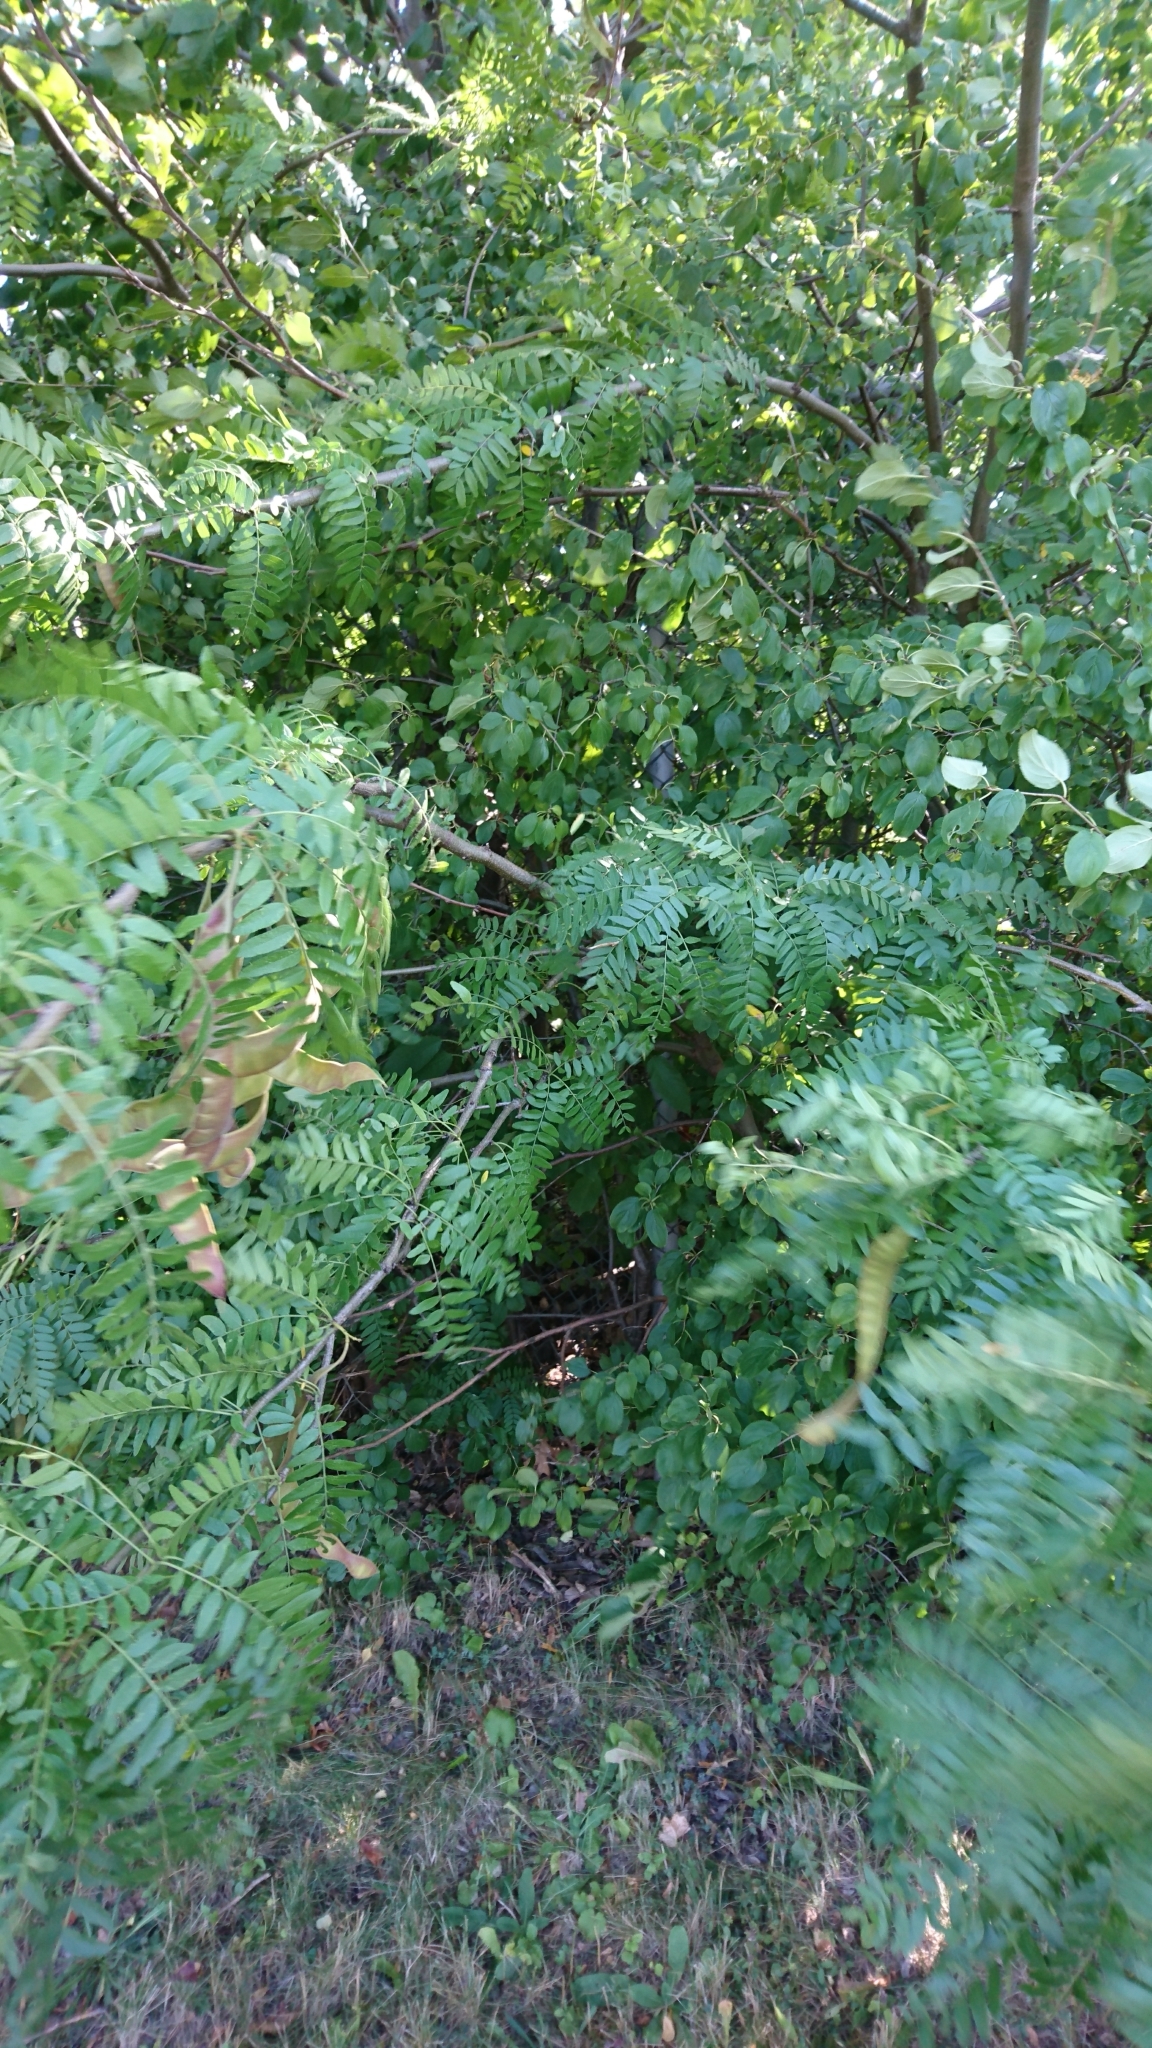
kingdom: Plantae
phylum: Tracheophyta
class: Magnoliopsida
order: Fabales
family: Fabaceae
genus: Gleditsia
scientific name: Gleditsia triacanthos
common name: Common honeylocust
